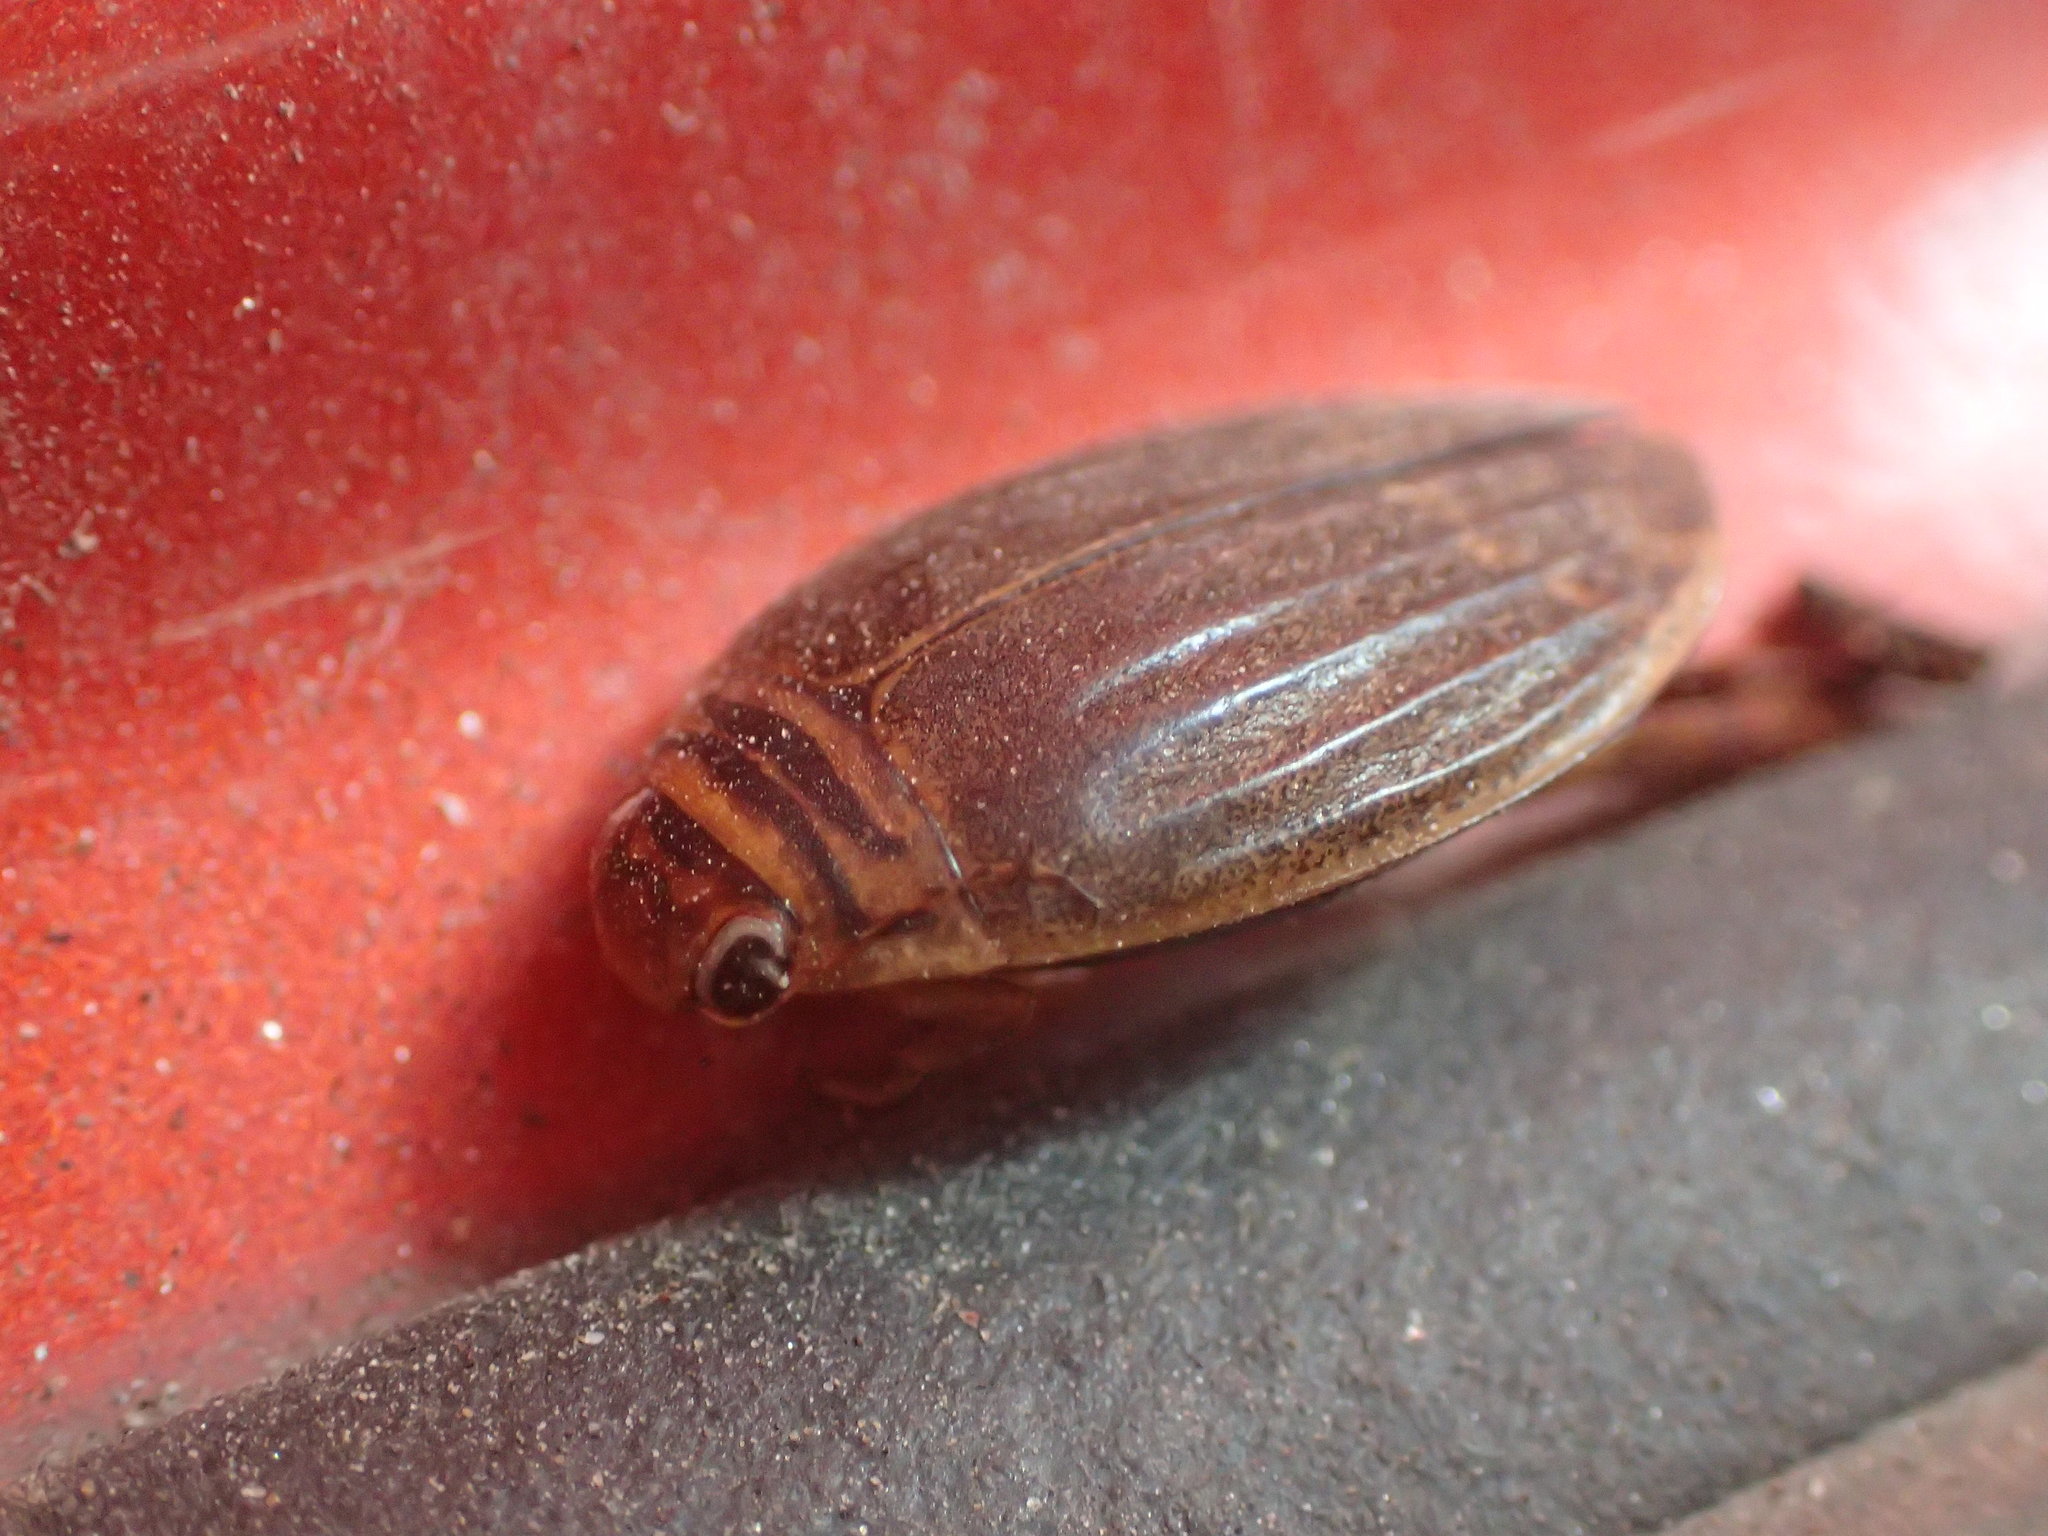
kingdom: Animalia
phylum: Arthropoda
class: Insecta
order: Coleoptera
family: Dytiscidae
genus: Acilius
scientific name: Acilius semisulcatus
